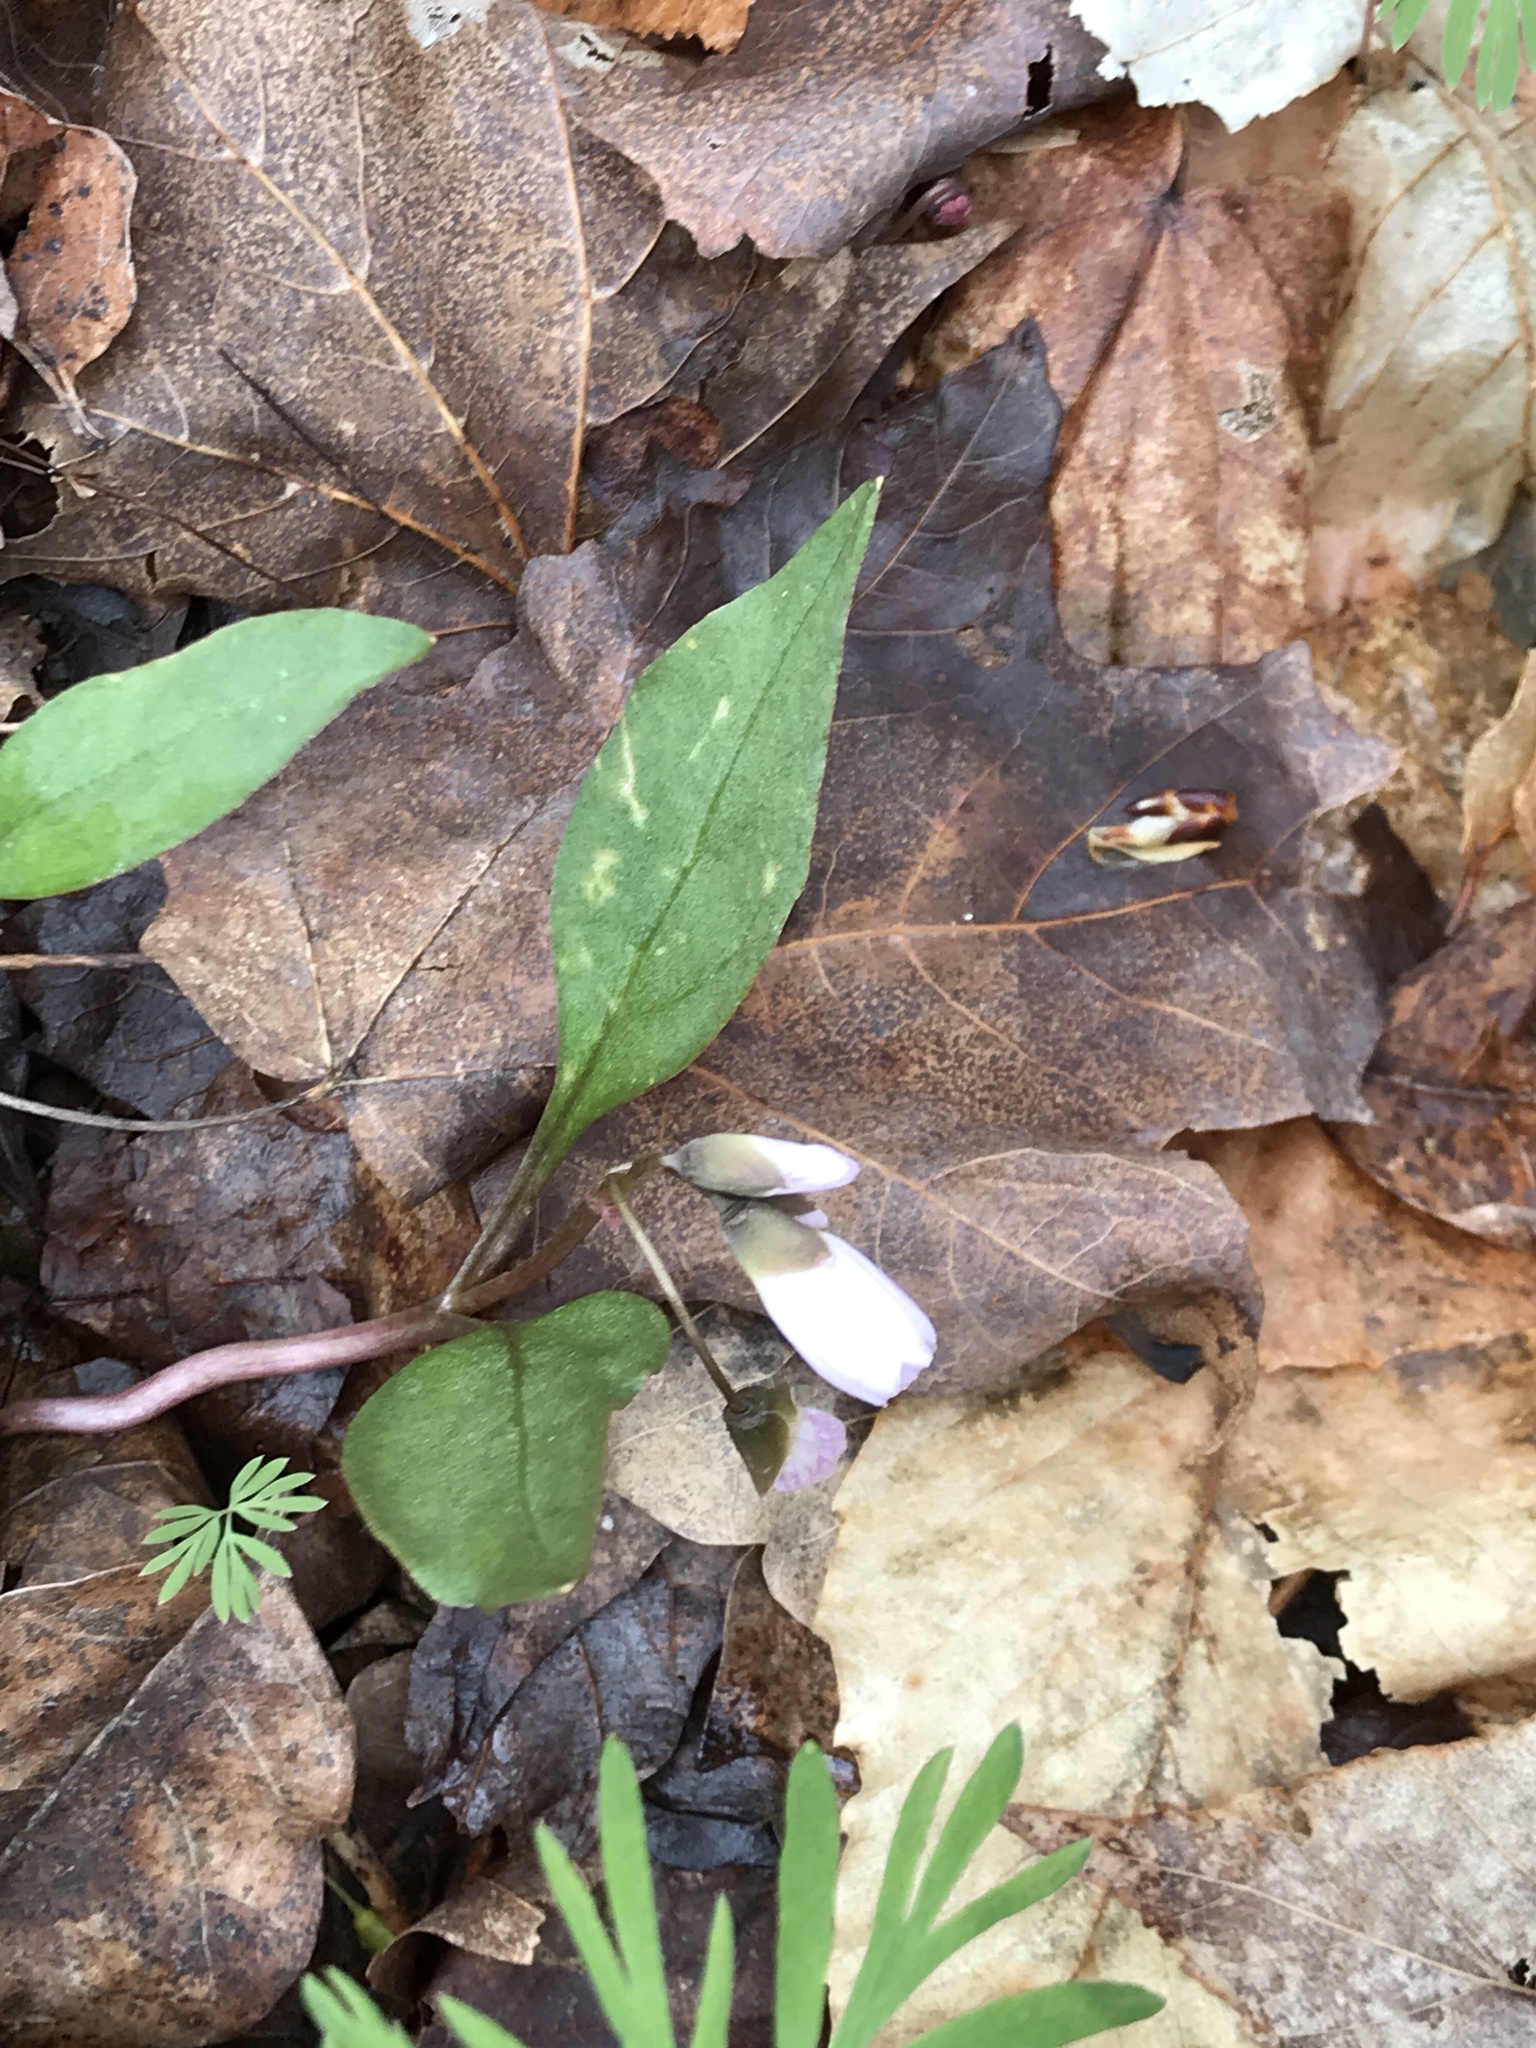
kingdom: Plantae
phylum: Tracheophyta
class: Magnoliopsida
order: Caryophyllales
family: Montiaceae
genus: Claytonia
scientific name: Claytonia caroliniana
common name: Carolina spring beauty
